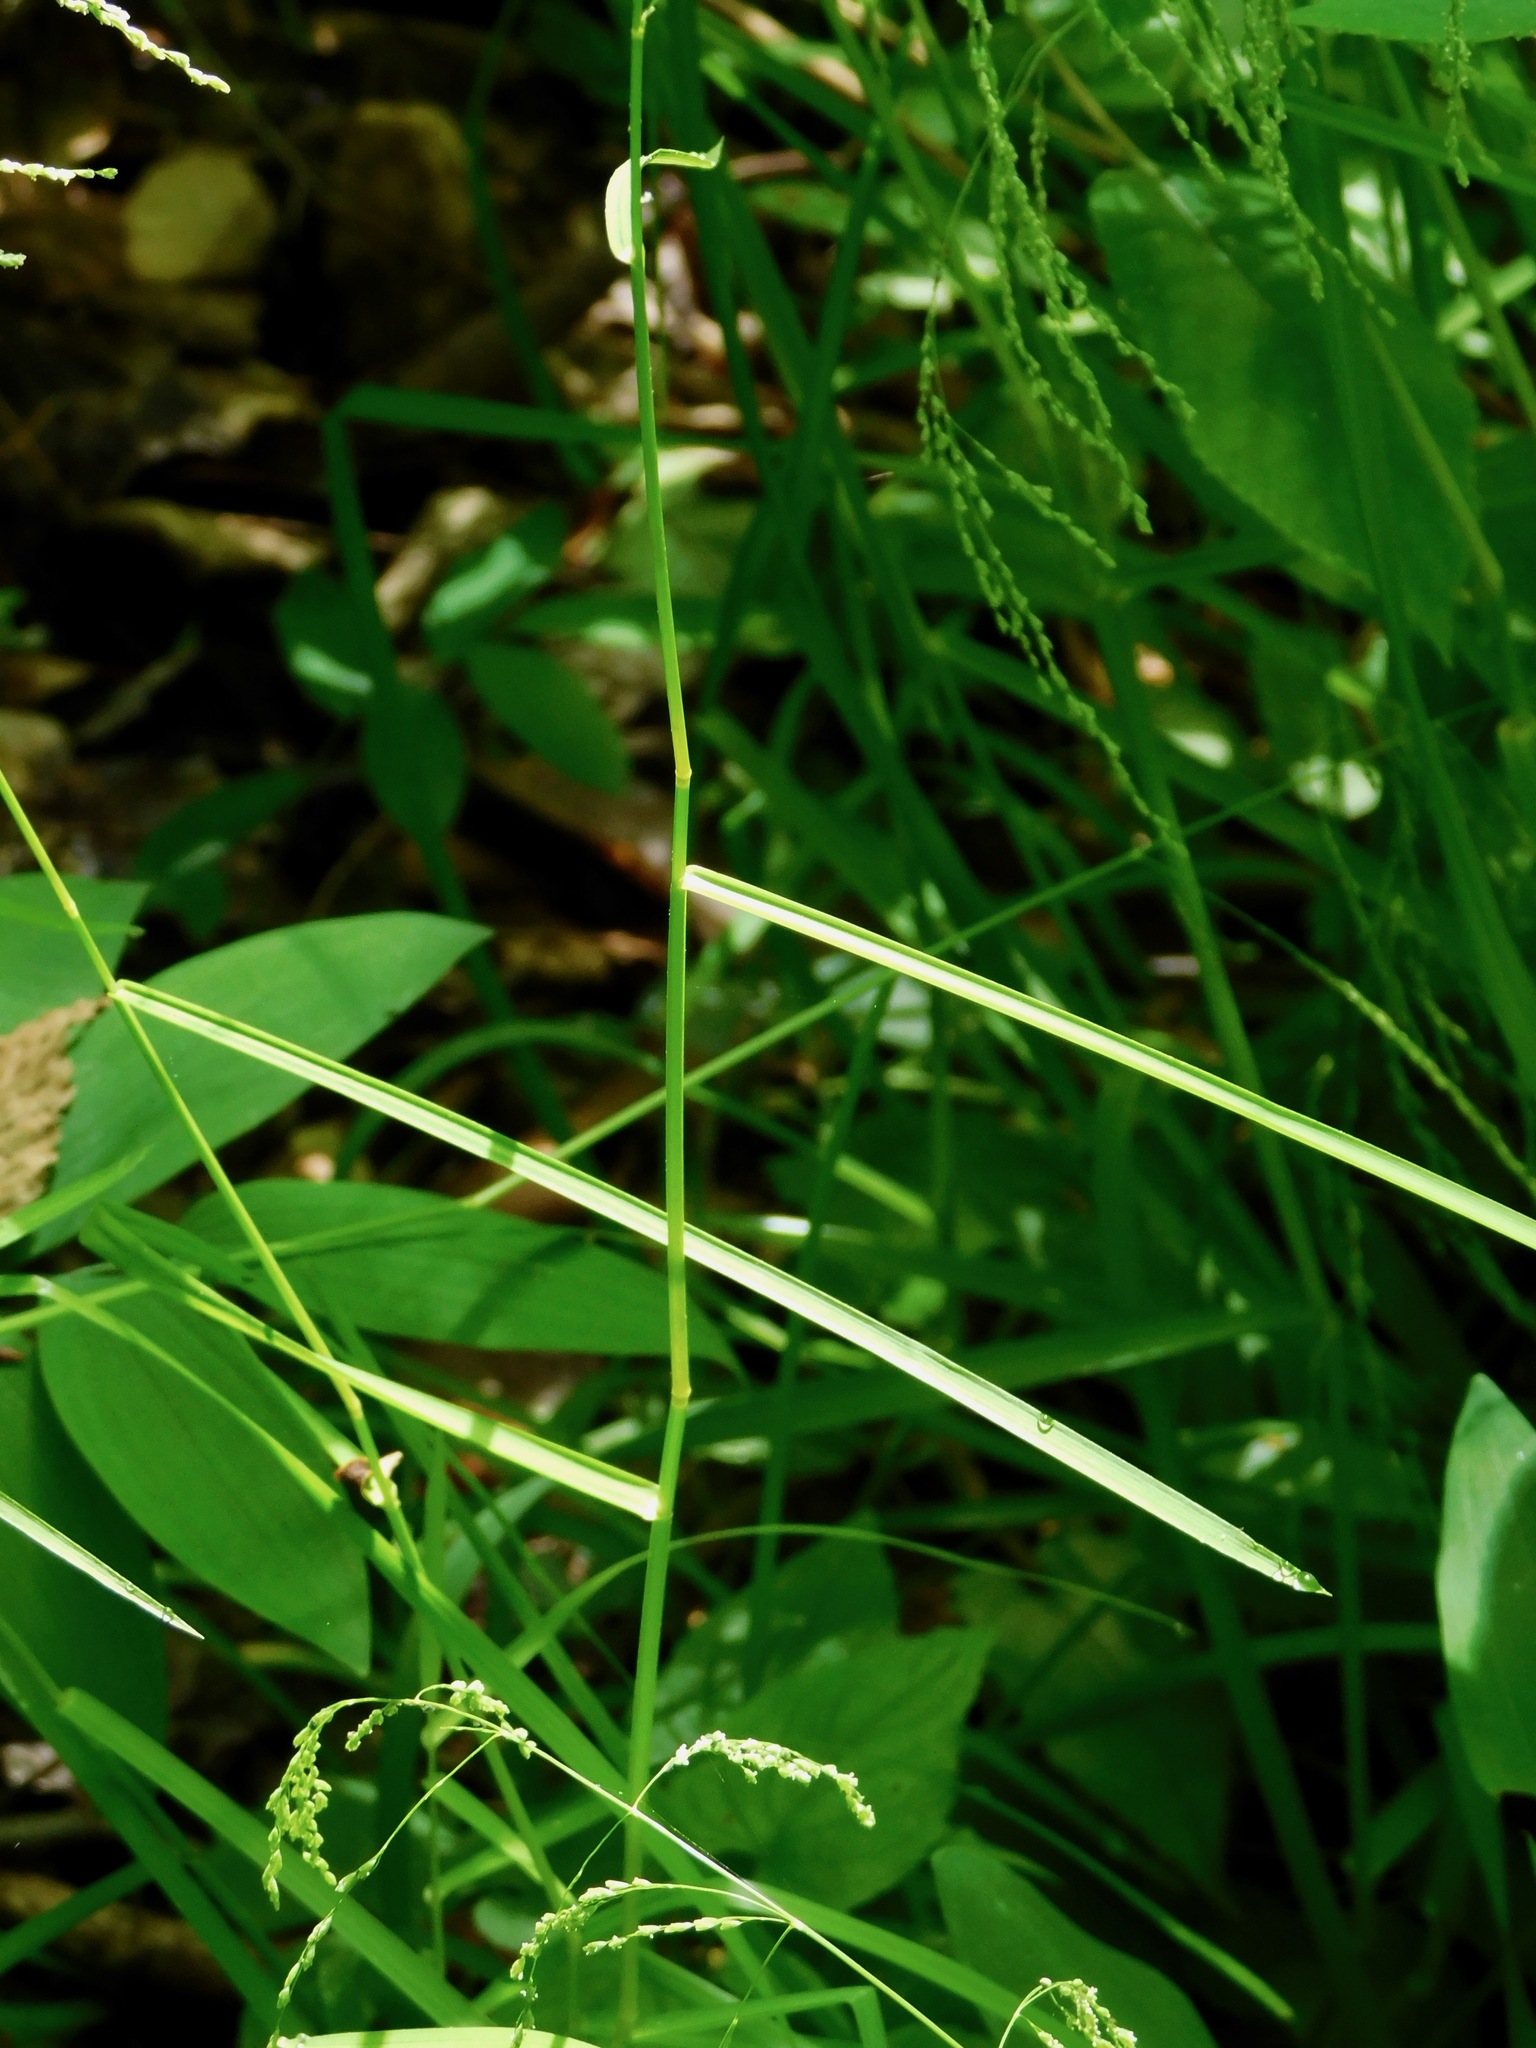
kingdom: Plantae
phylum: Tracheophyta
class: Liliopsida
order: Poales
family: Poaceae
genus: Glyceria
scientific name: Glyceria striata
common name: Fowl manna grass
